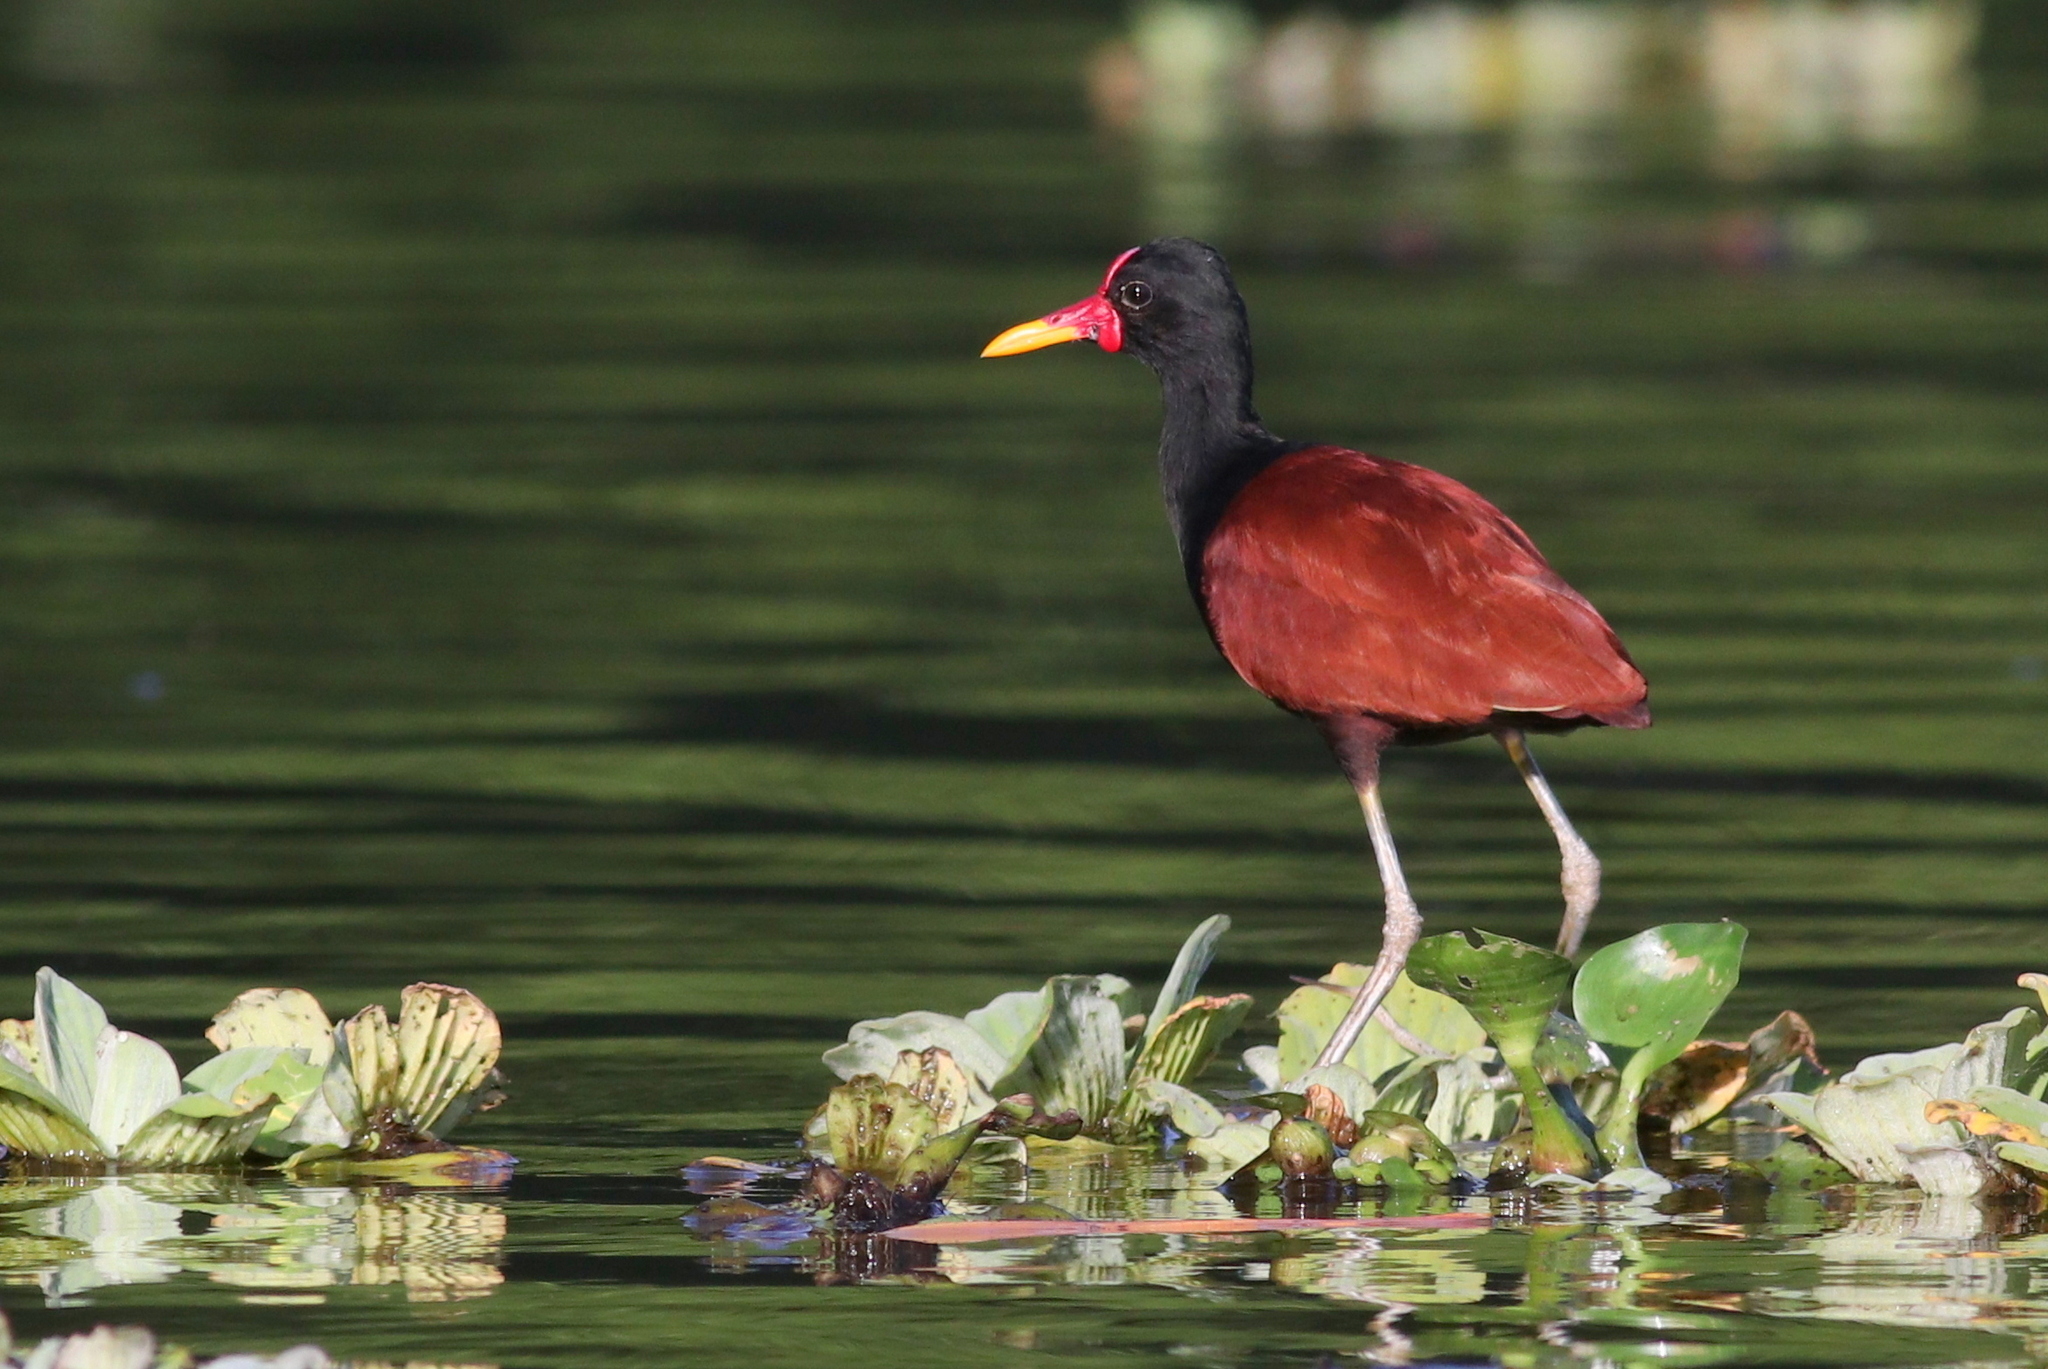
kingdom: Animalia
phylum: Chordata
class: Aves
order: Charadriiformes
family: Jacanidae
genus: Jacana
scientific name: Jacana jacana
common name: Wattled jacana
